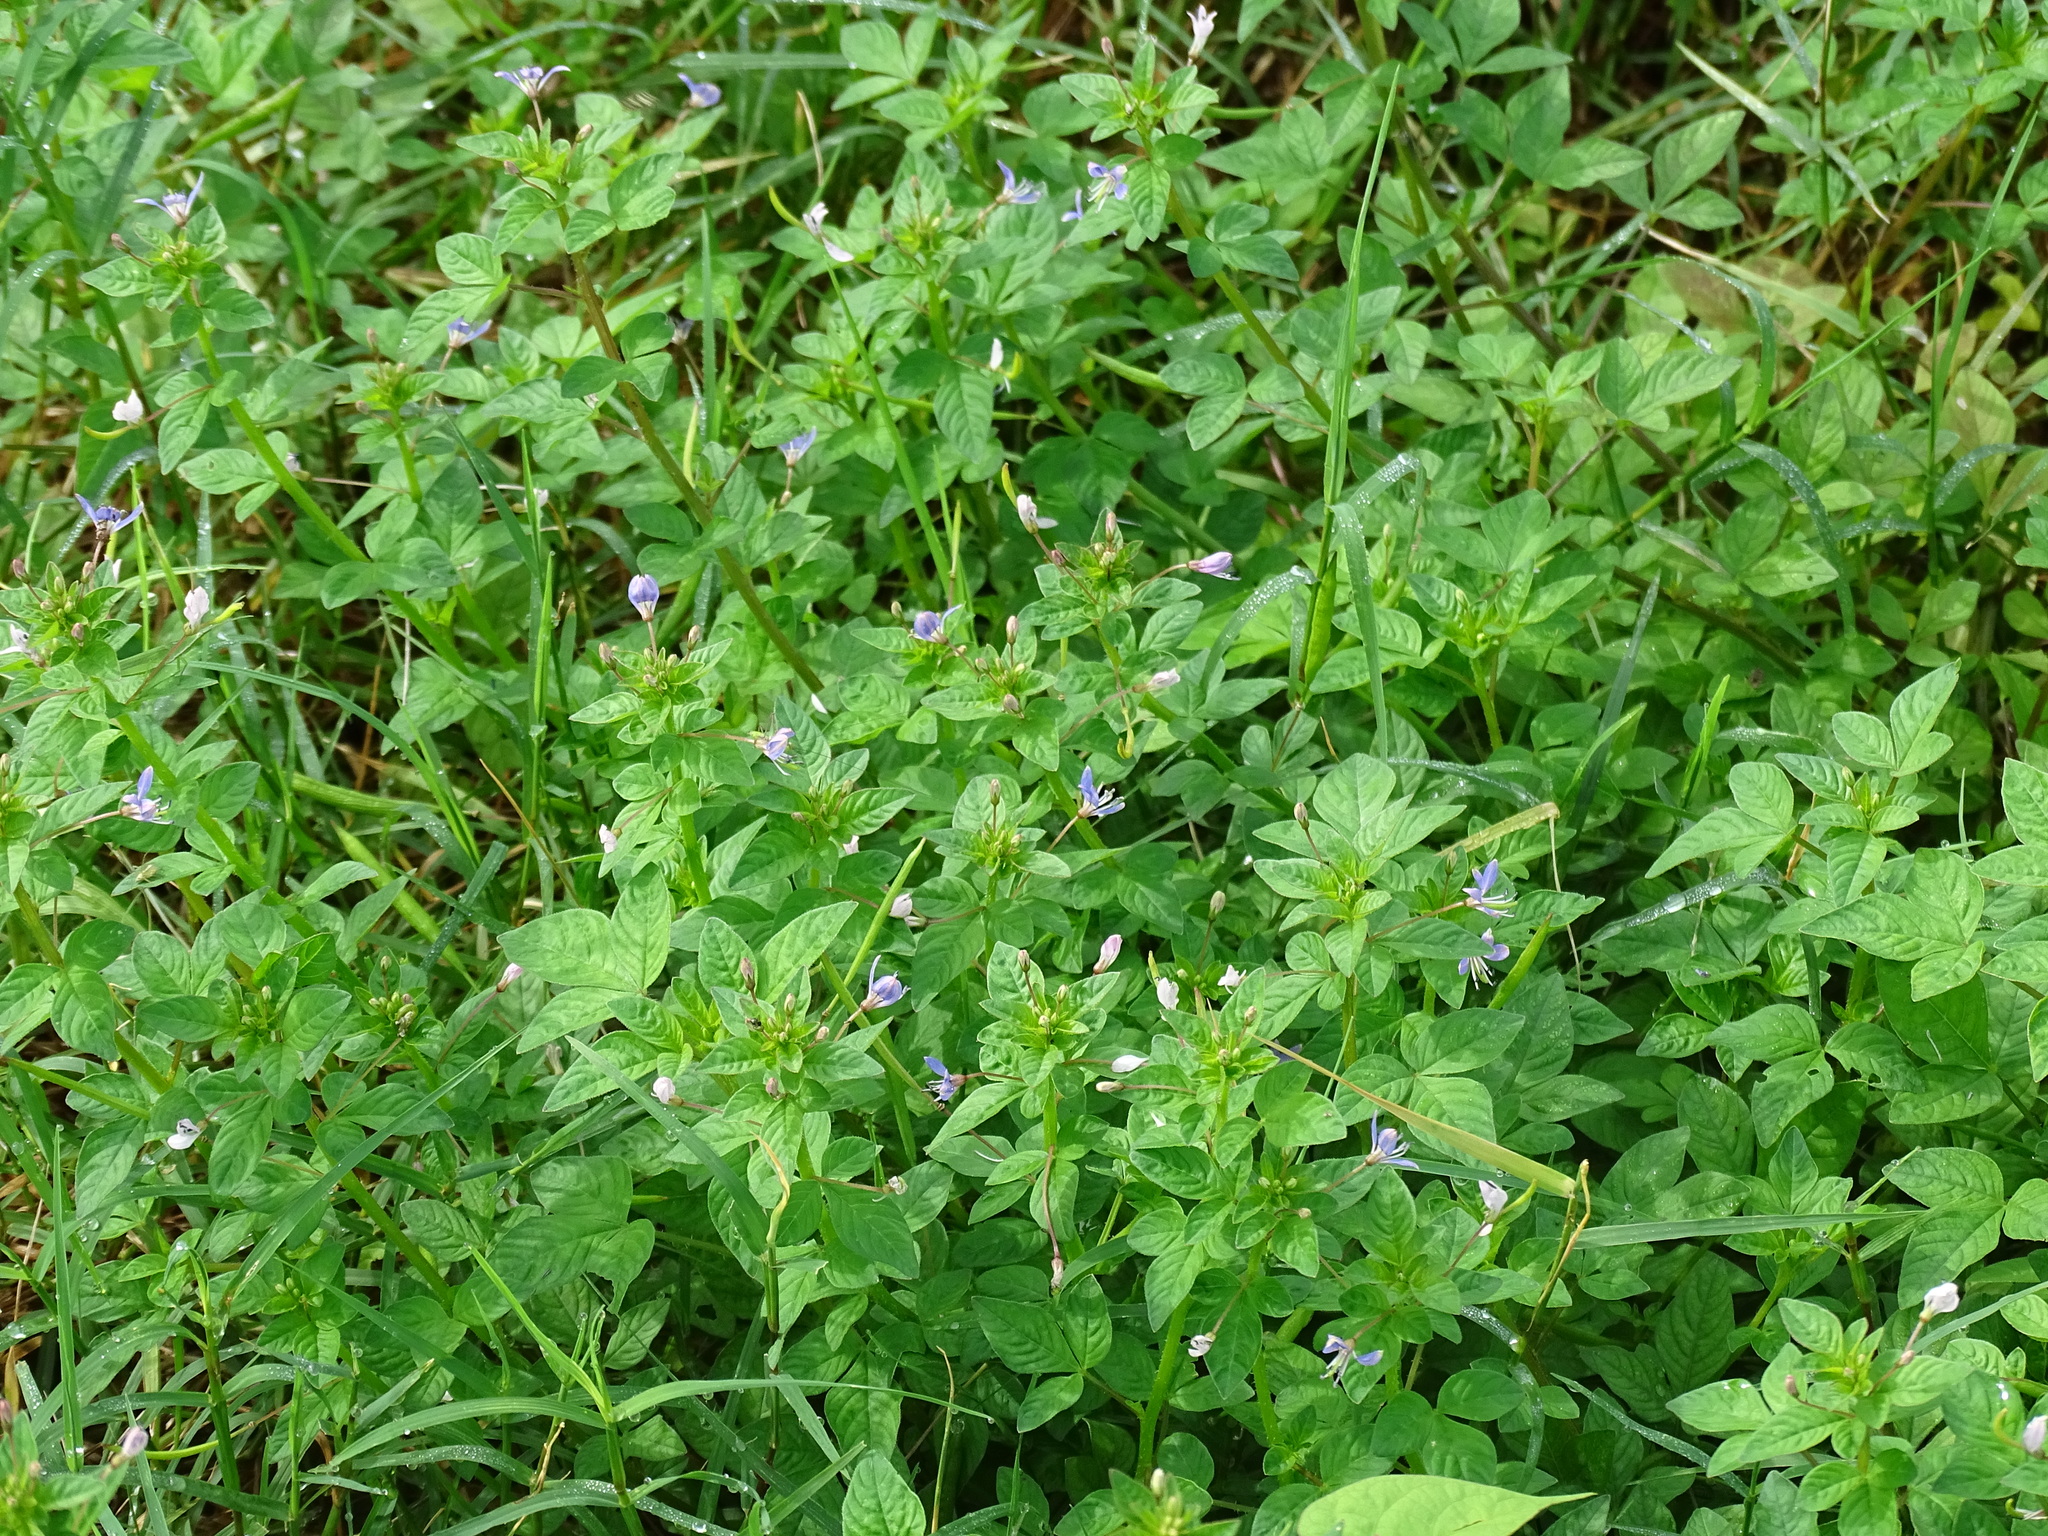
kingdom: Plantae
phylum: Tracheophyta
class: Magnoliopsida
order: Brassicales
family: Cleomaceae
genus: Sieruela
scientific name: Sieruela rutidosperma
